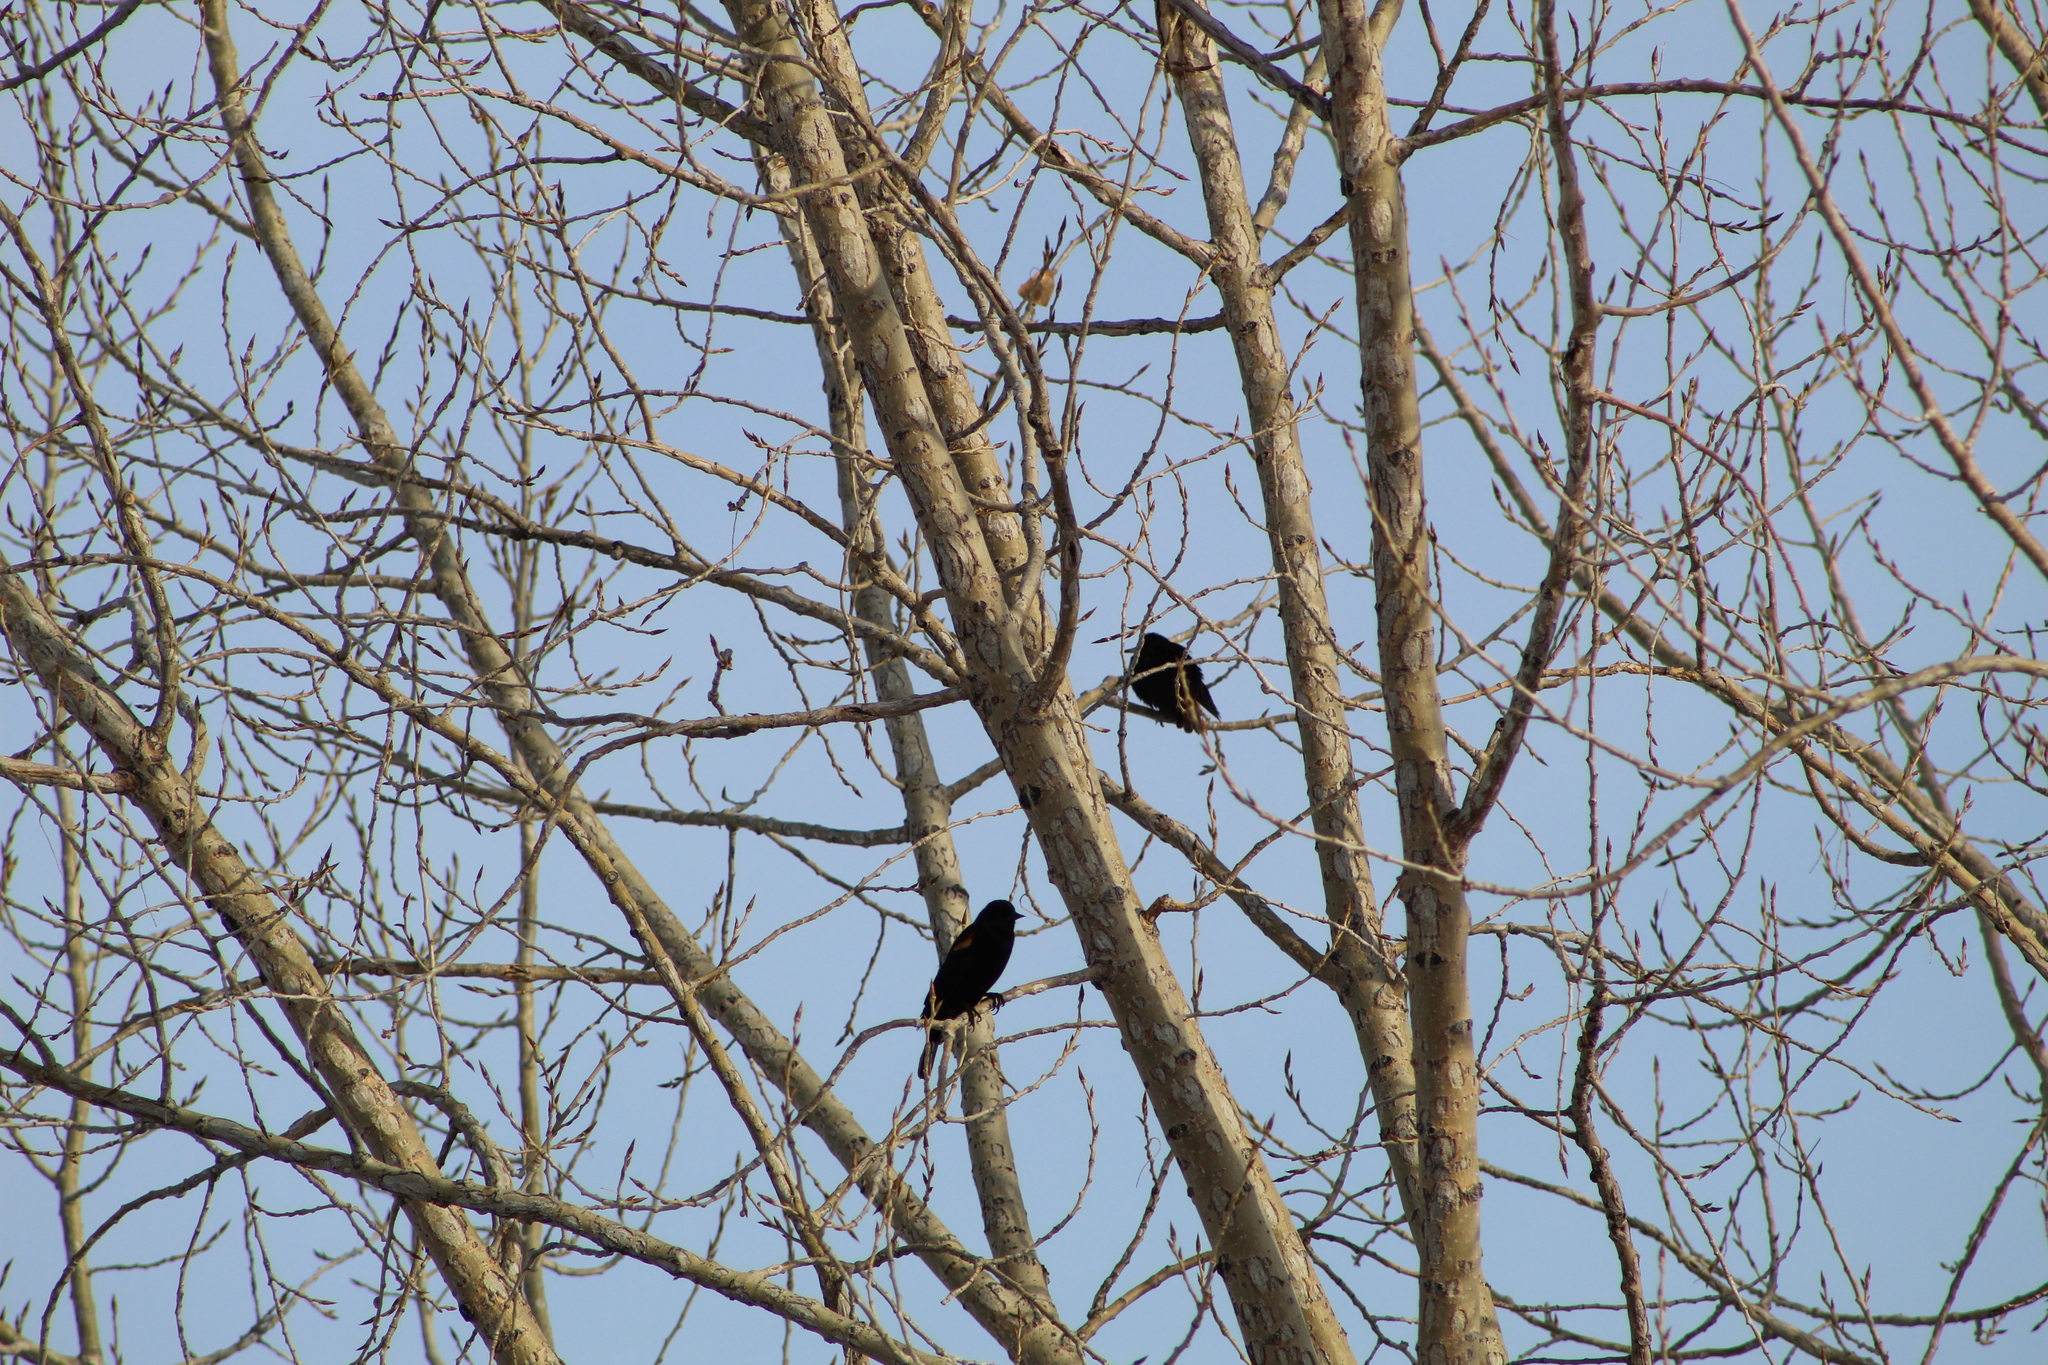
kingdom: Animalia
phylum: Chordata
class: Aves
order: Passeriformes
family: Icteridae
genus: Agelaius
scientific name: Agelaius phoeniceus
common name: Red-winged blackbird
